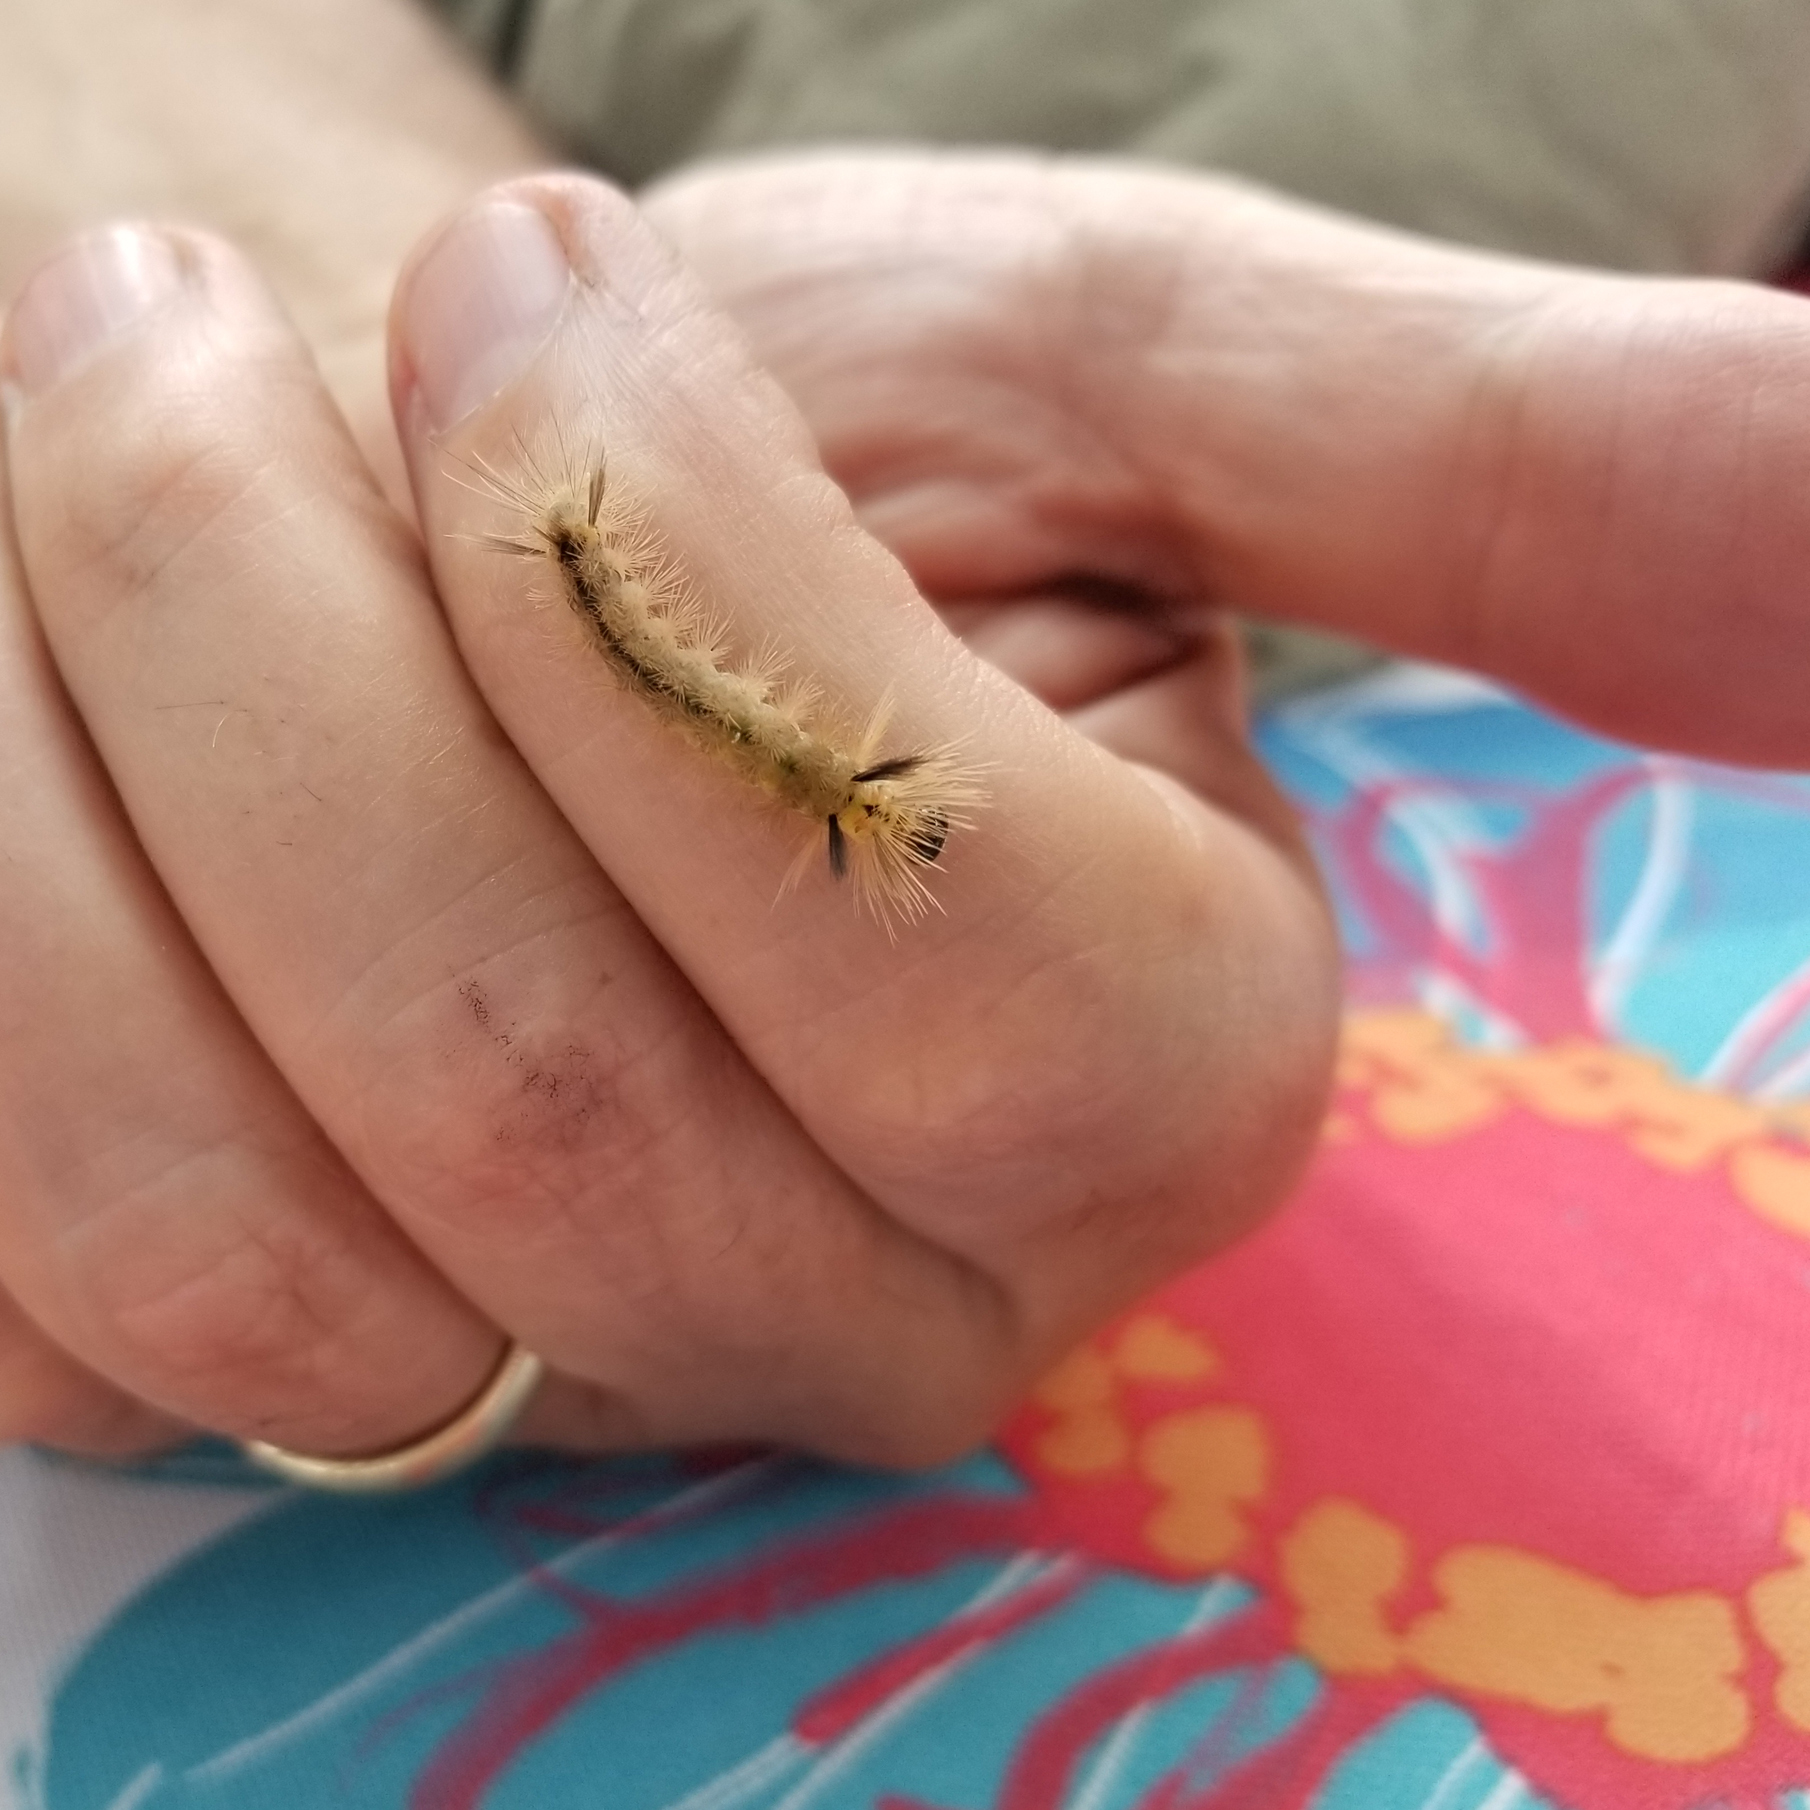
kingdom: Animalia
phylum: Arthropoda
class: Insecta
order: Lepidoptera
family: Erebidae
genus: Halysidota
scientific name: Halysidota tessellaris
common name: Banded tussock moth
